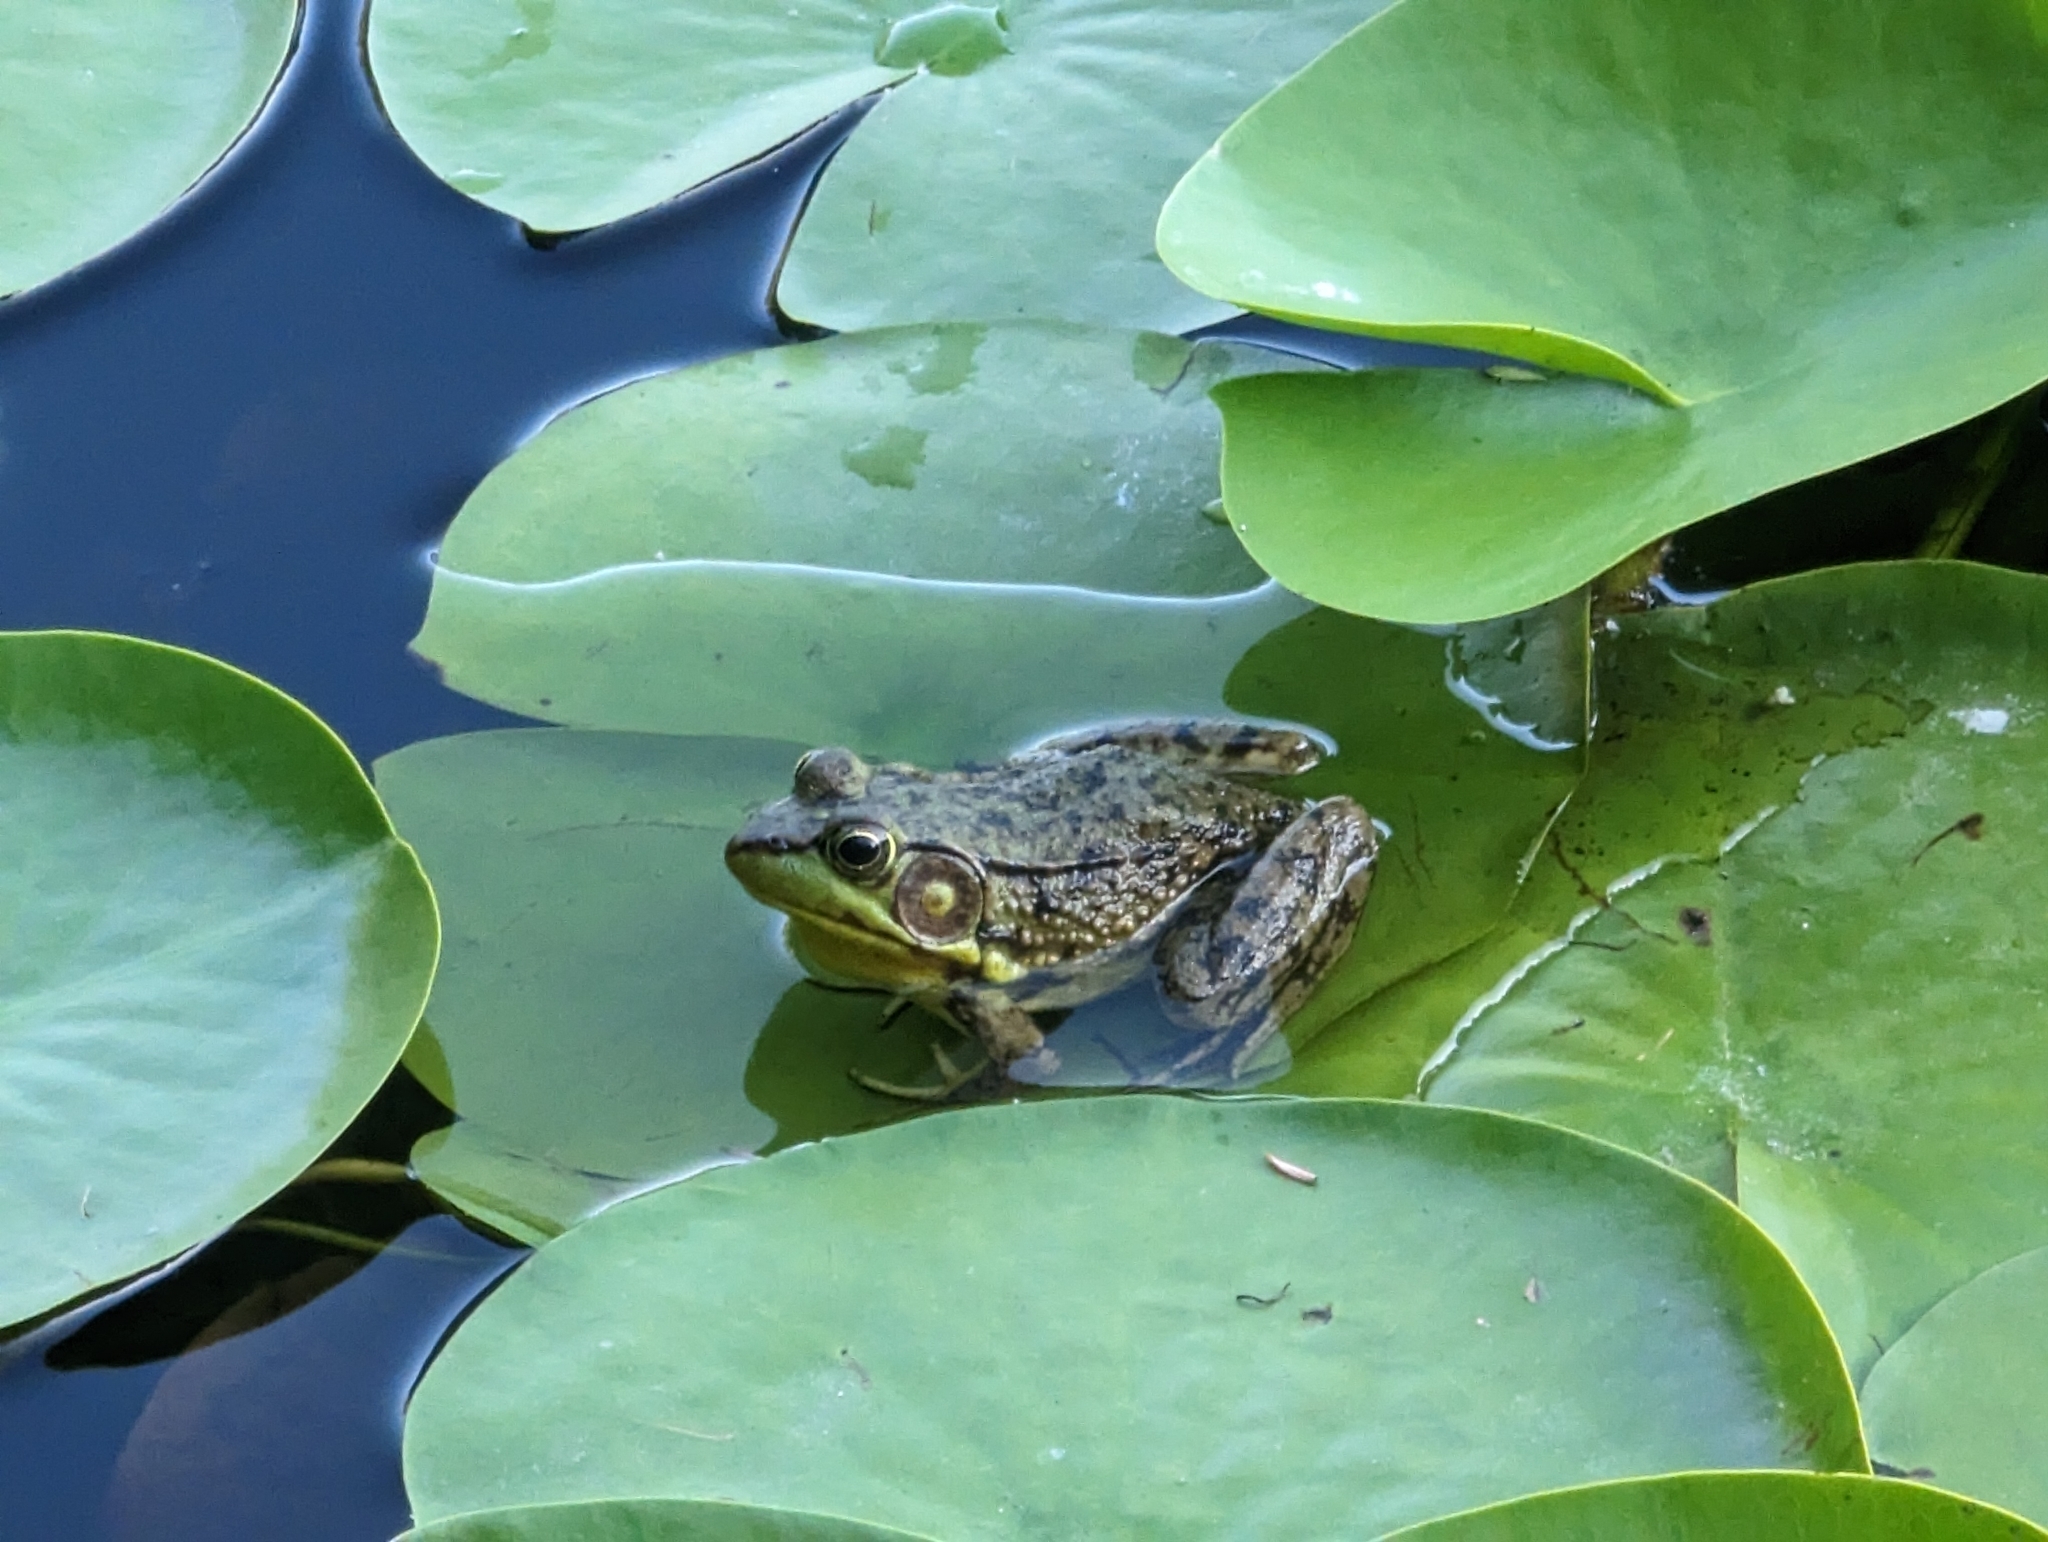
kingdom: Animalia
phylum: Chordata
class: Amphibia
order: Anura
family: Ranidae
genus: Lithobates
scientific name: Lithobates clamitans
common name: Green frog
